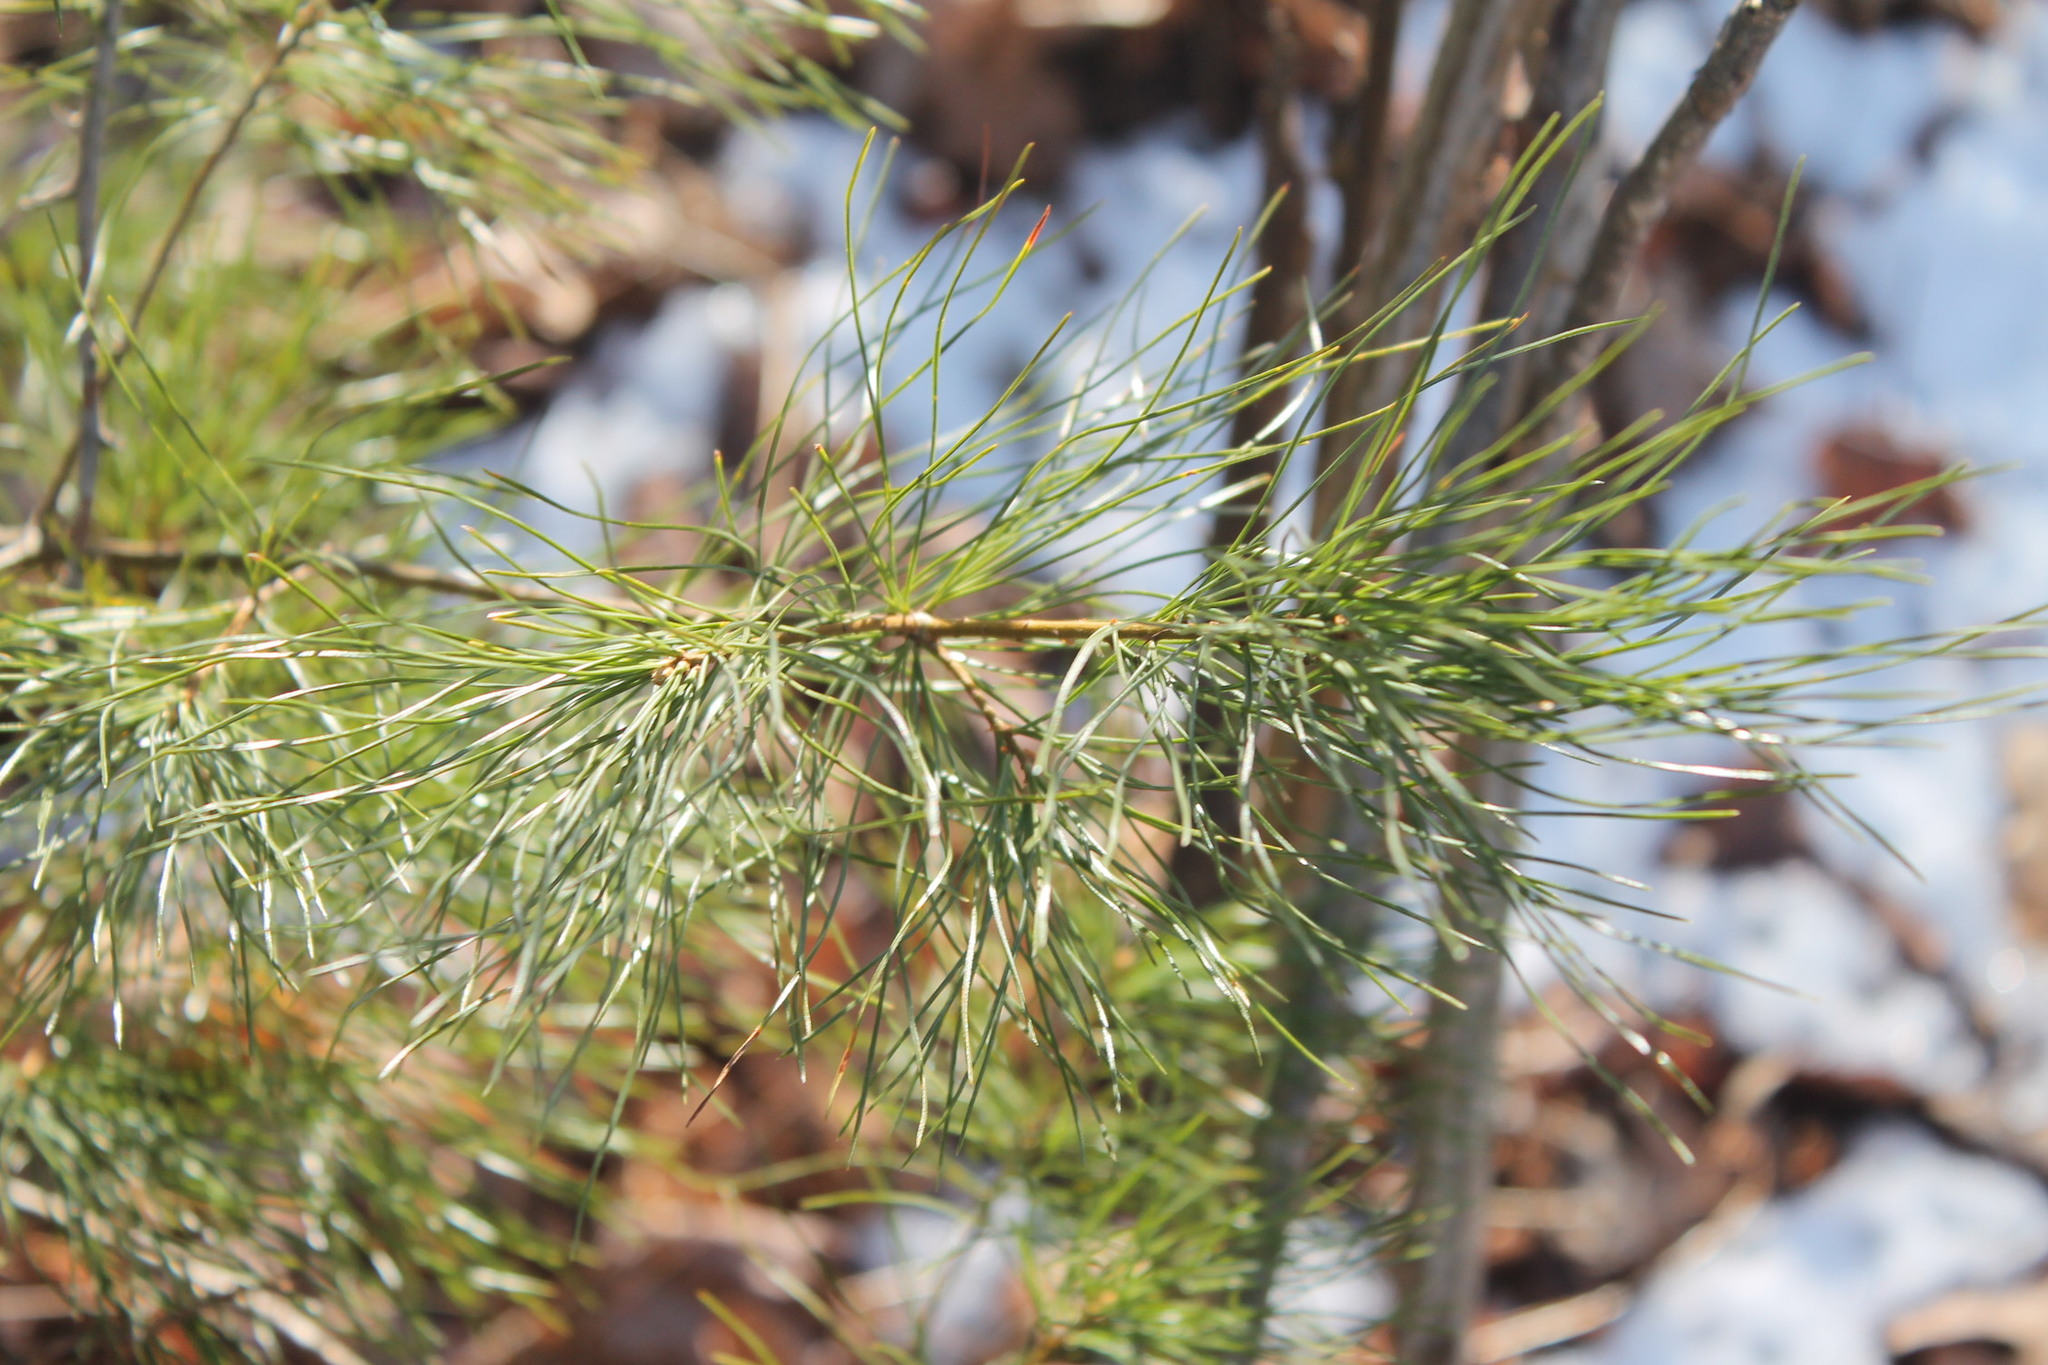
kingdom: Plantae
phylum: Tracheophyta
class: Pinopsida
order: Pinales
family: Pinaceae
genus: Pinus
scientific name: Pinus strobus
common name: Weymouth pine
